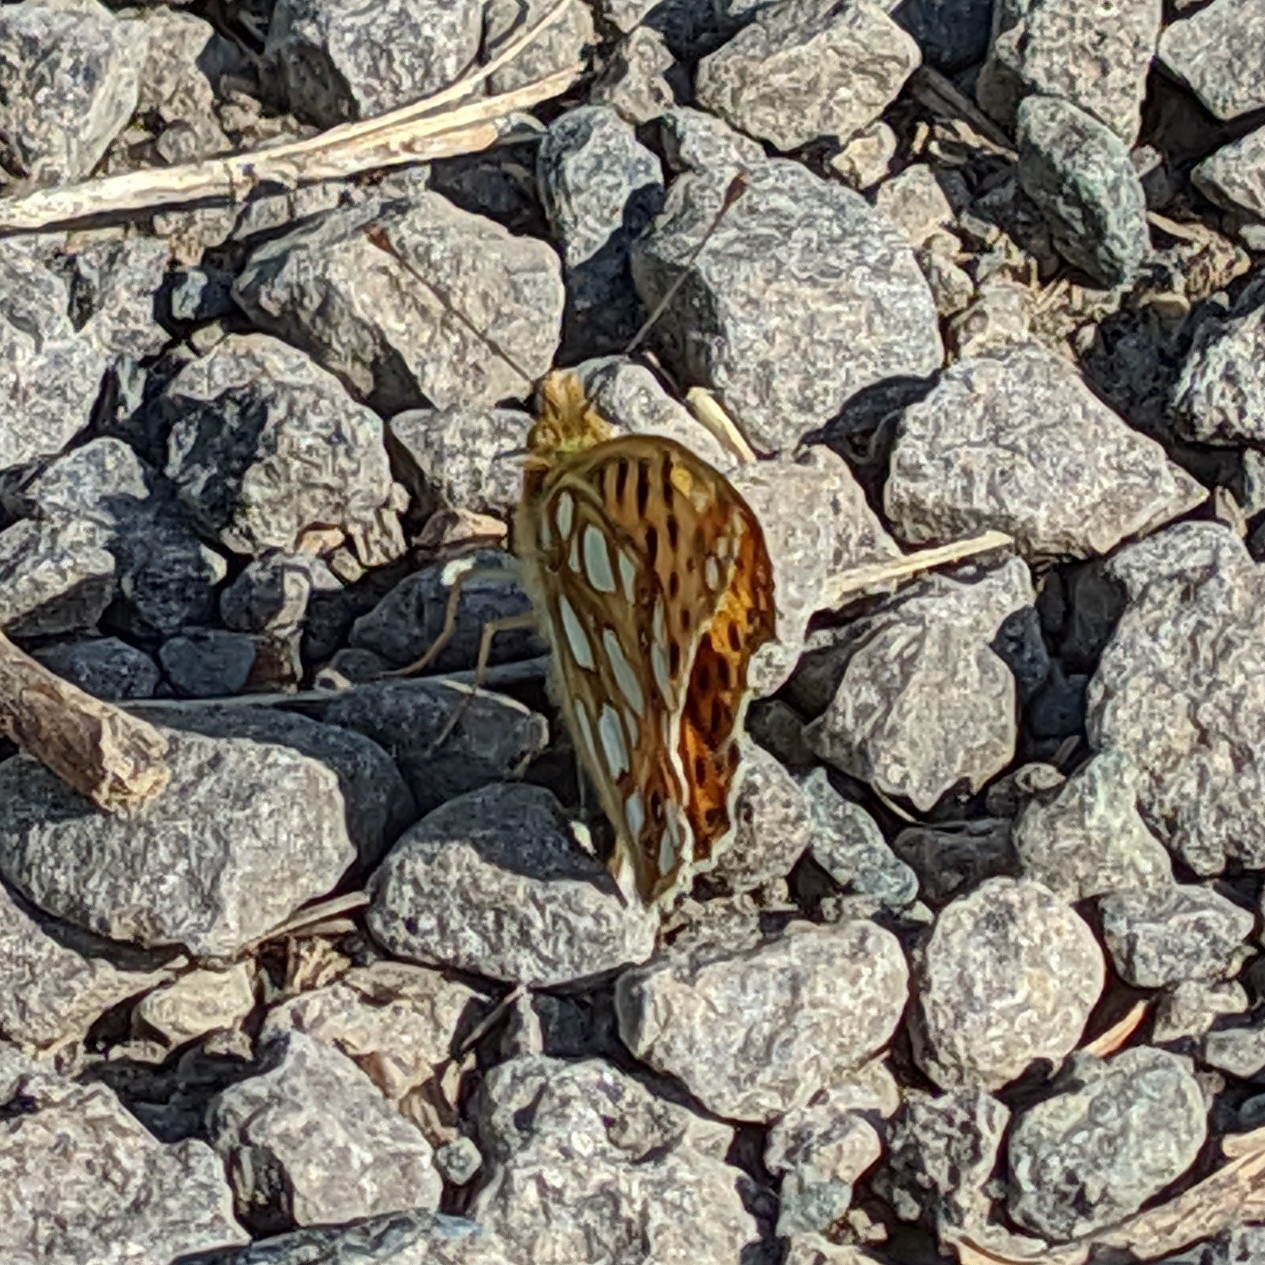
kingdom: Animalia
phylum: Arthropoda
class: Insecta
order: Lepidoptera
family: Nymphalidae
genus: Issoria
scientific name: Issoria lathonia
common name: Queen of spain fritillary
